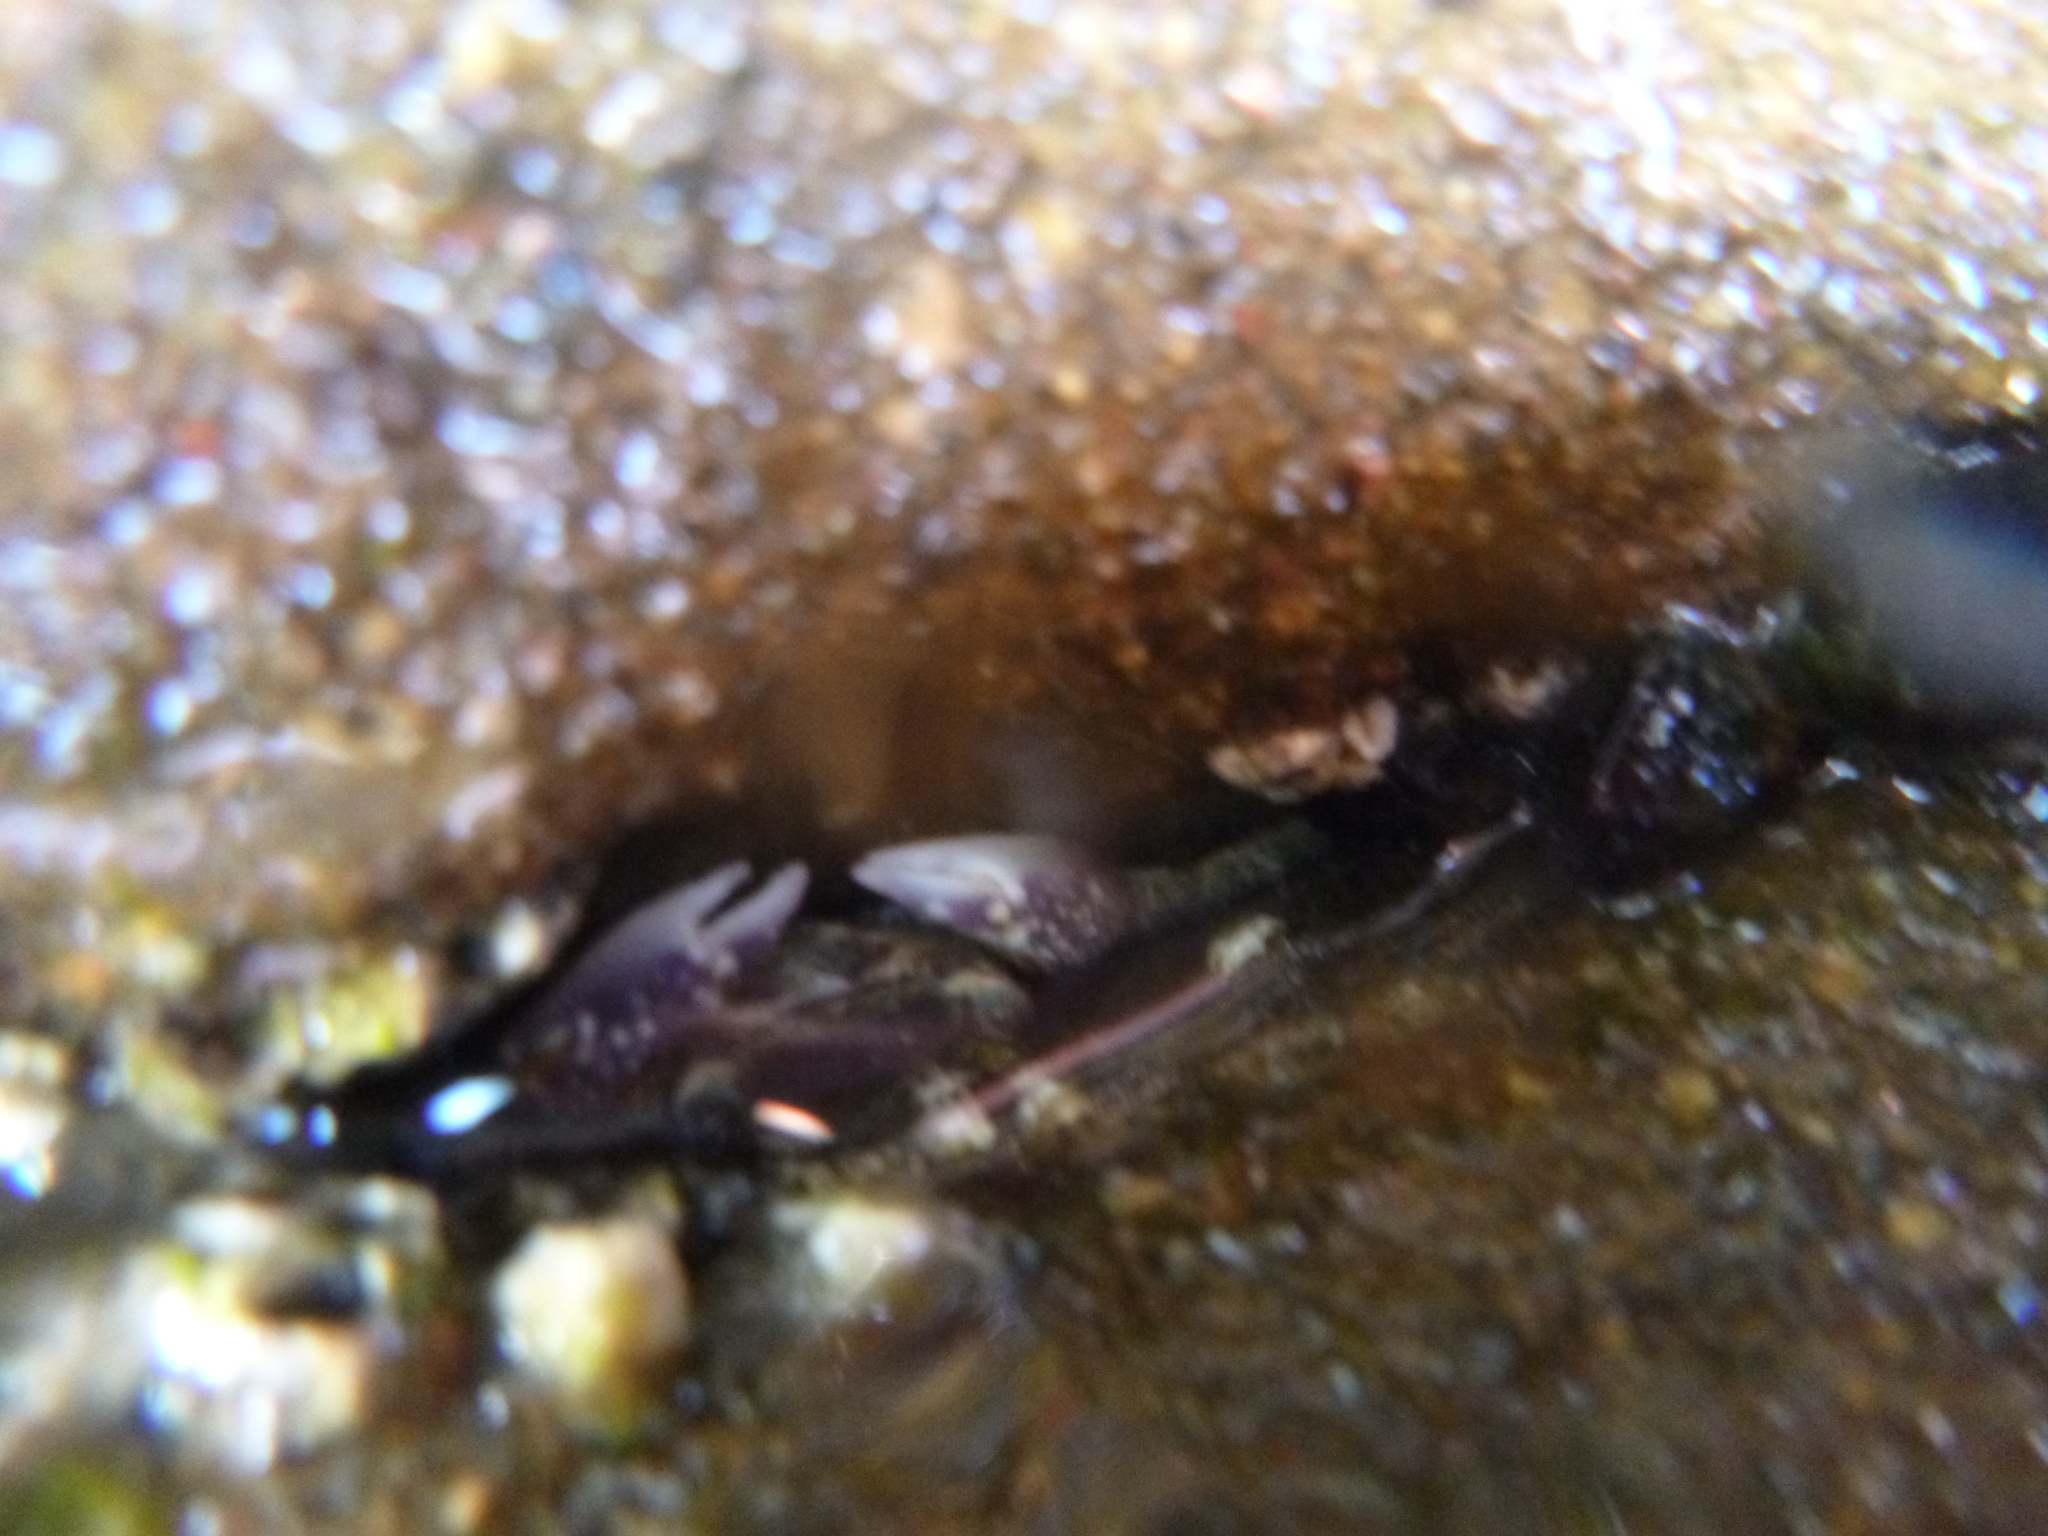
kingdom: Animalia
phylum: Arthropoda
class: Malacostraca
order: Decapoda
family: Grapsidae
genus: Leptograpsus
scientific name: Leptograpsus variegatus
